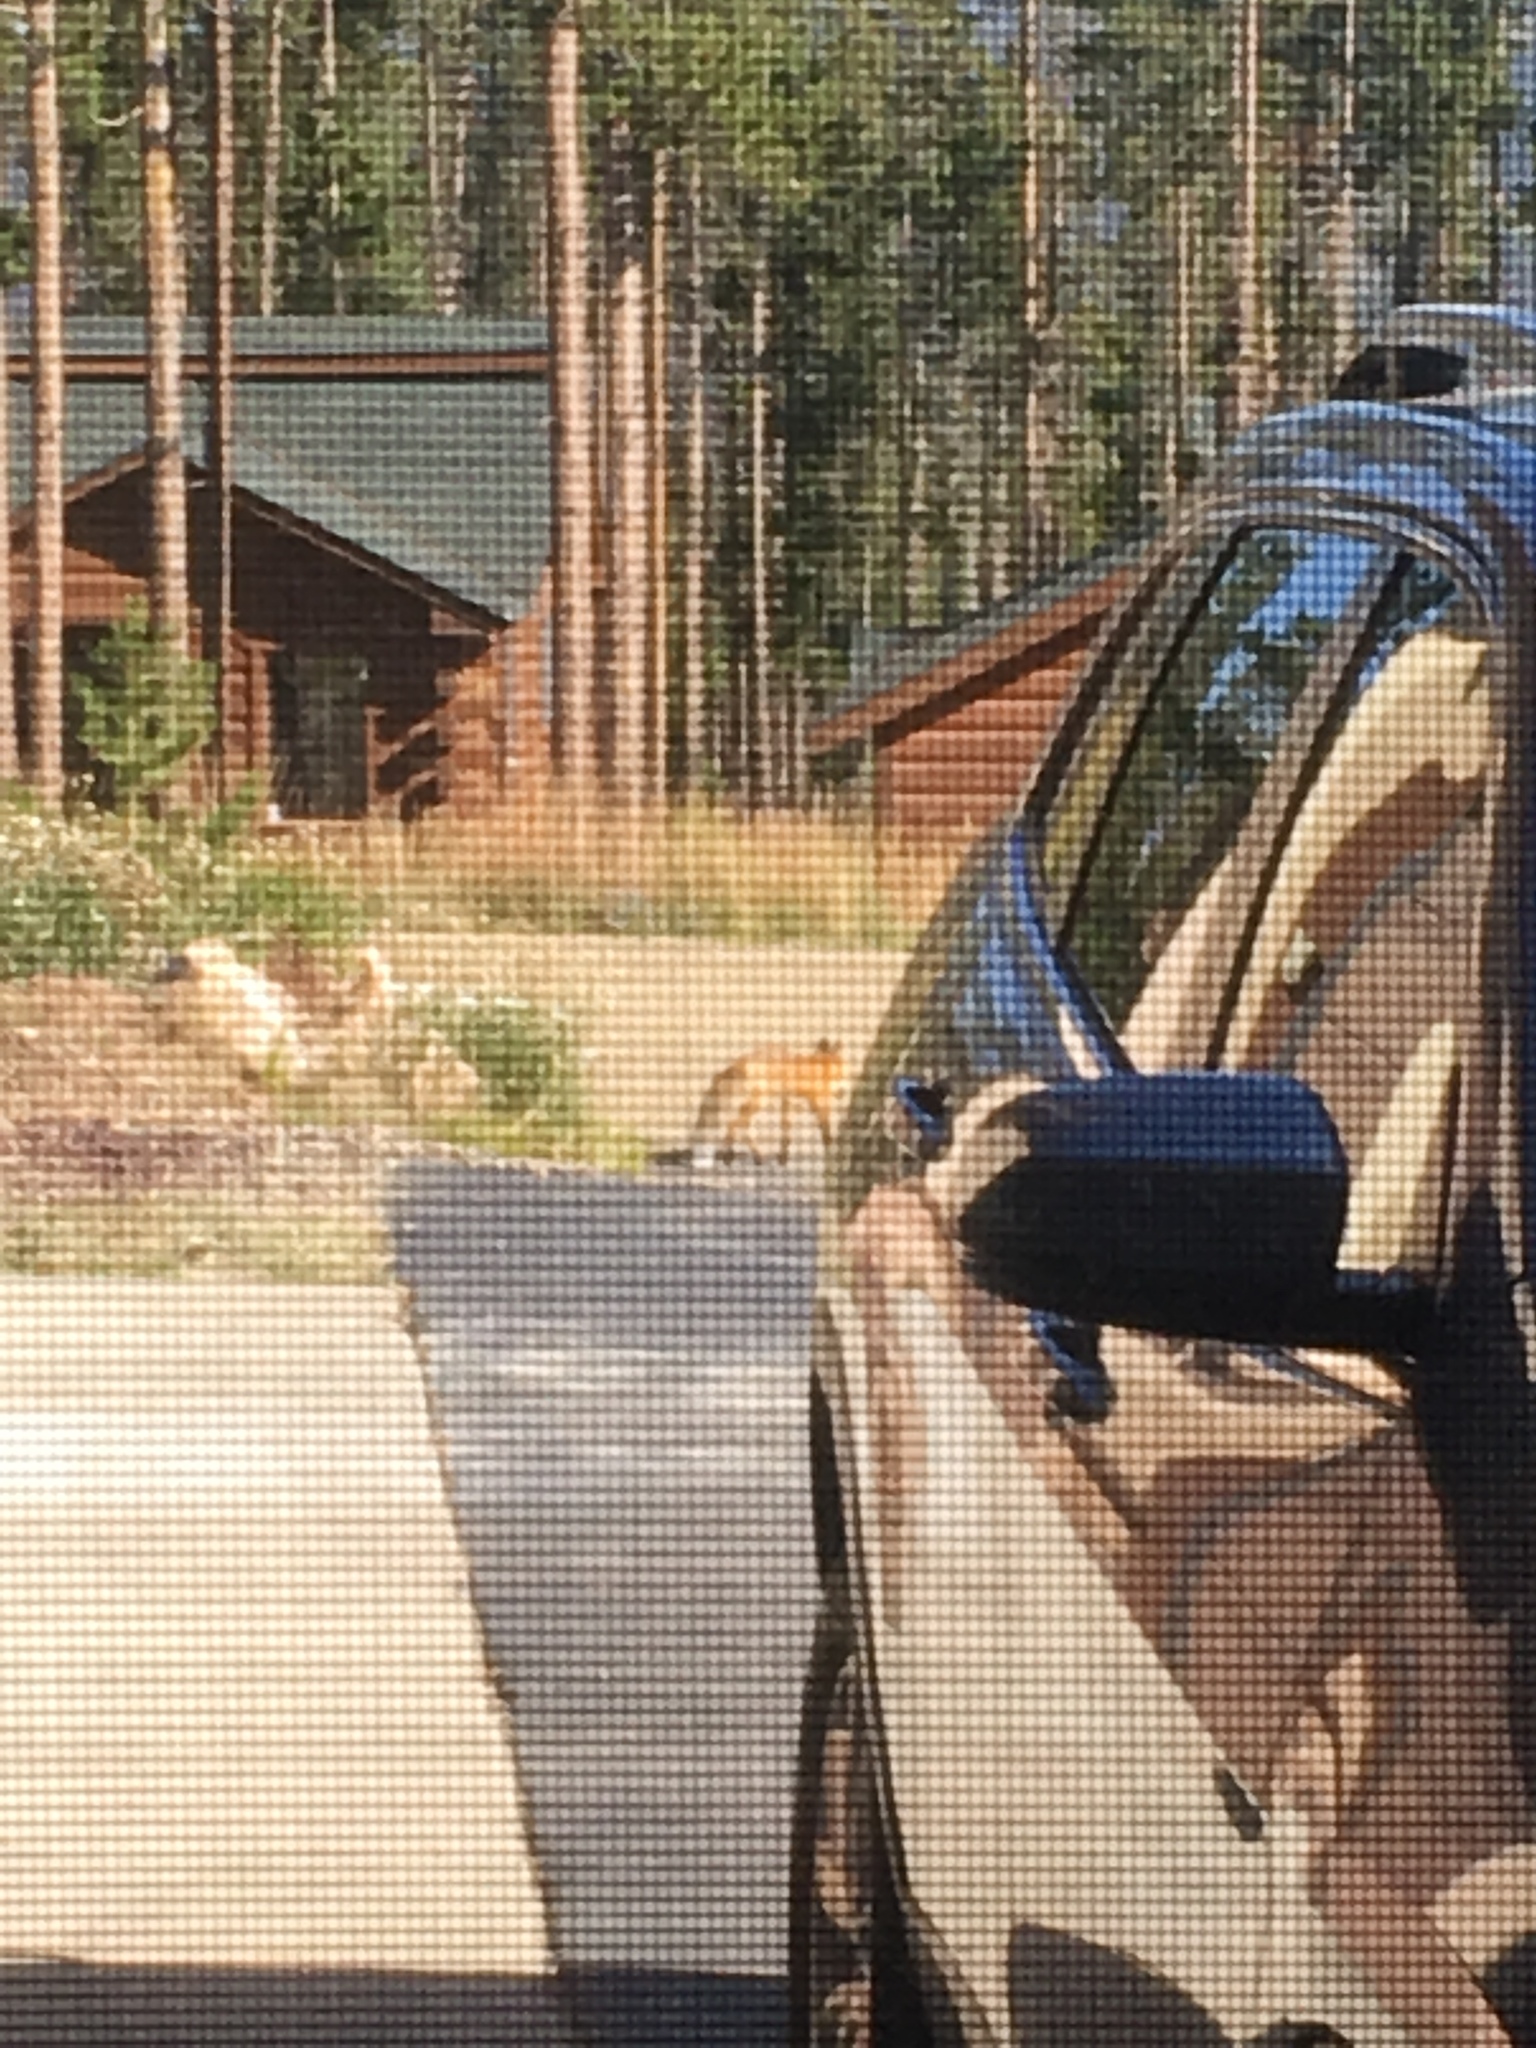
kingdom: Animalia
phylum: Chordata
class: Mammalia
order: Carnivora
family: Canidae
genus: Vulpes
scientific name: Vulpes vulpes
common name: Red fox
